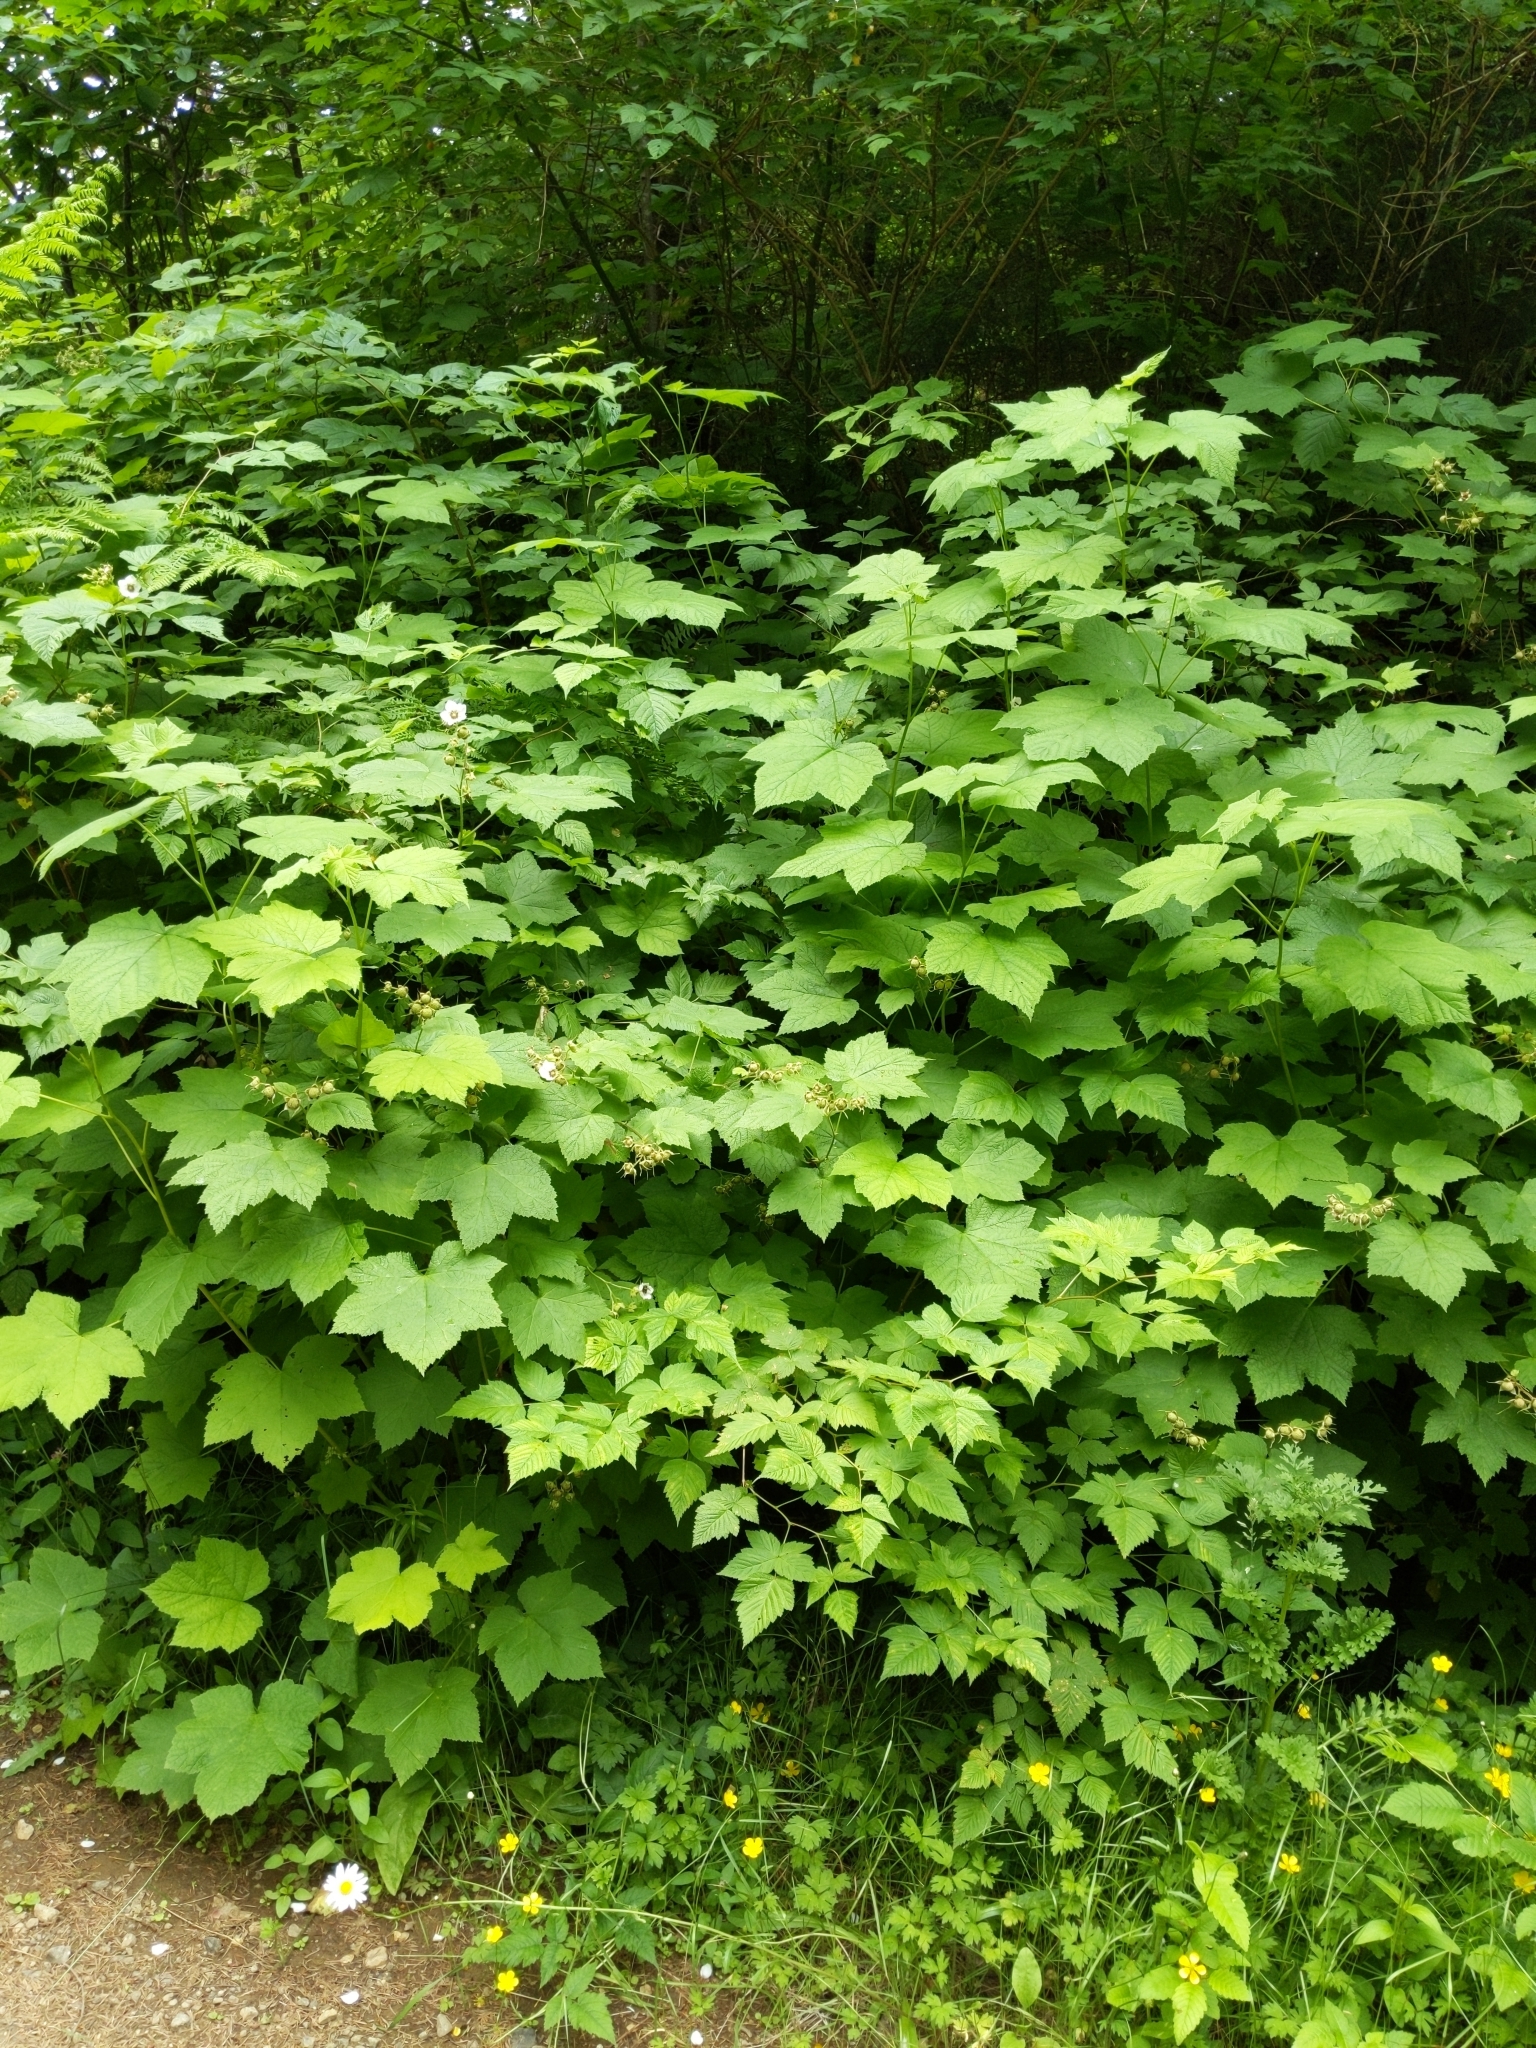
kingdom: Plantae
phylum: Tracheophyta
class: Magnoliopsida
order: Rosales
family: Rosaceae
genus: Rubus
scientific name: Rubus parviflorus
